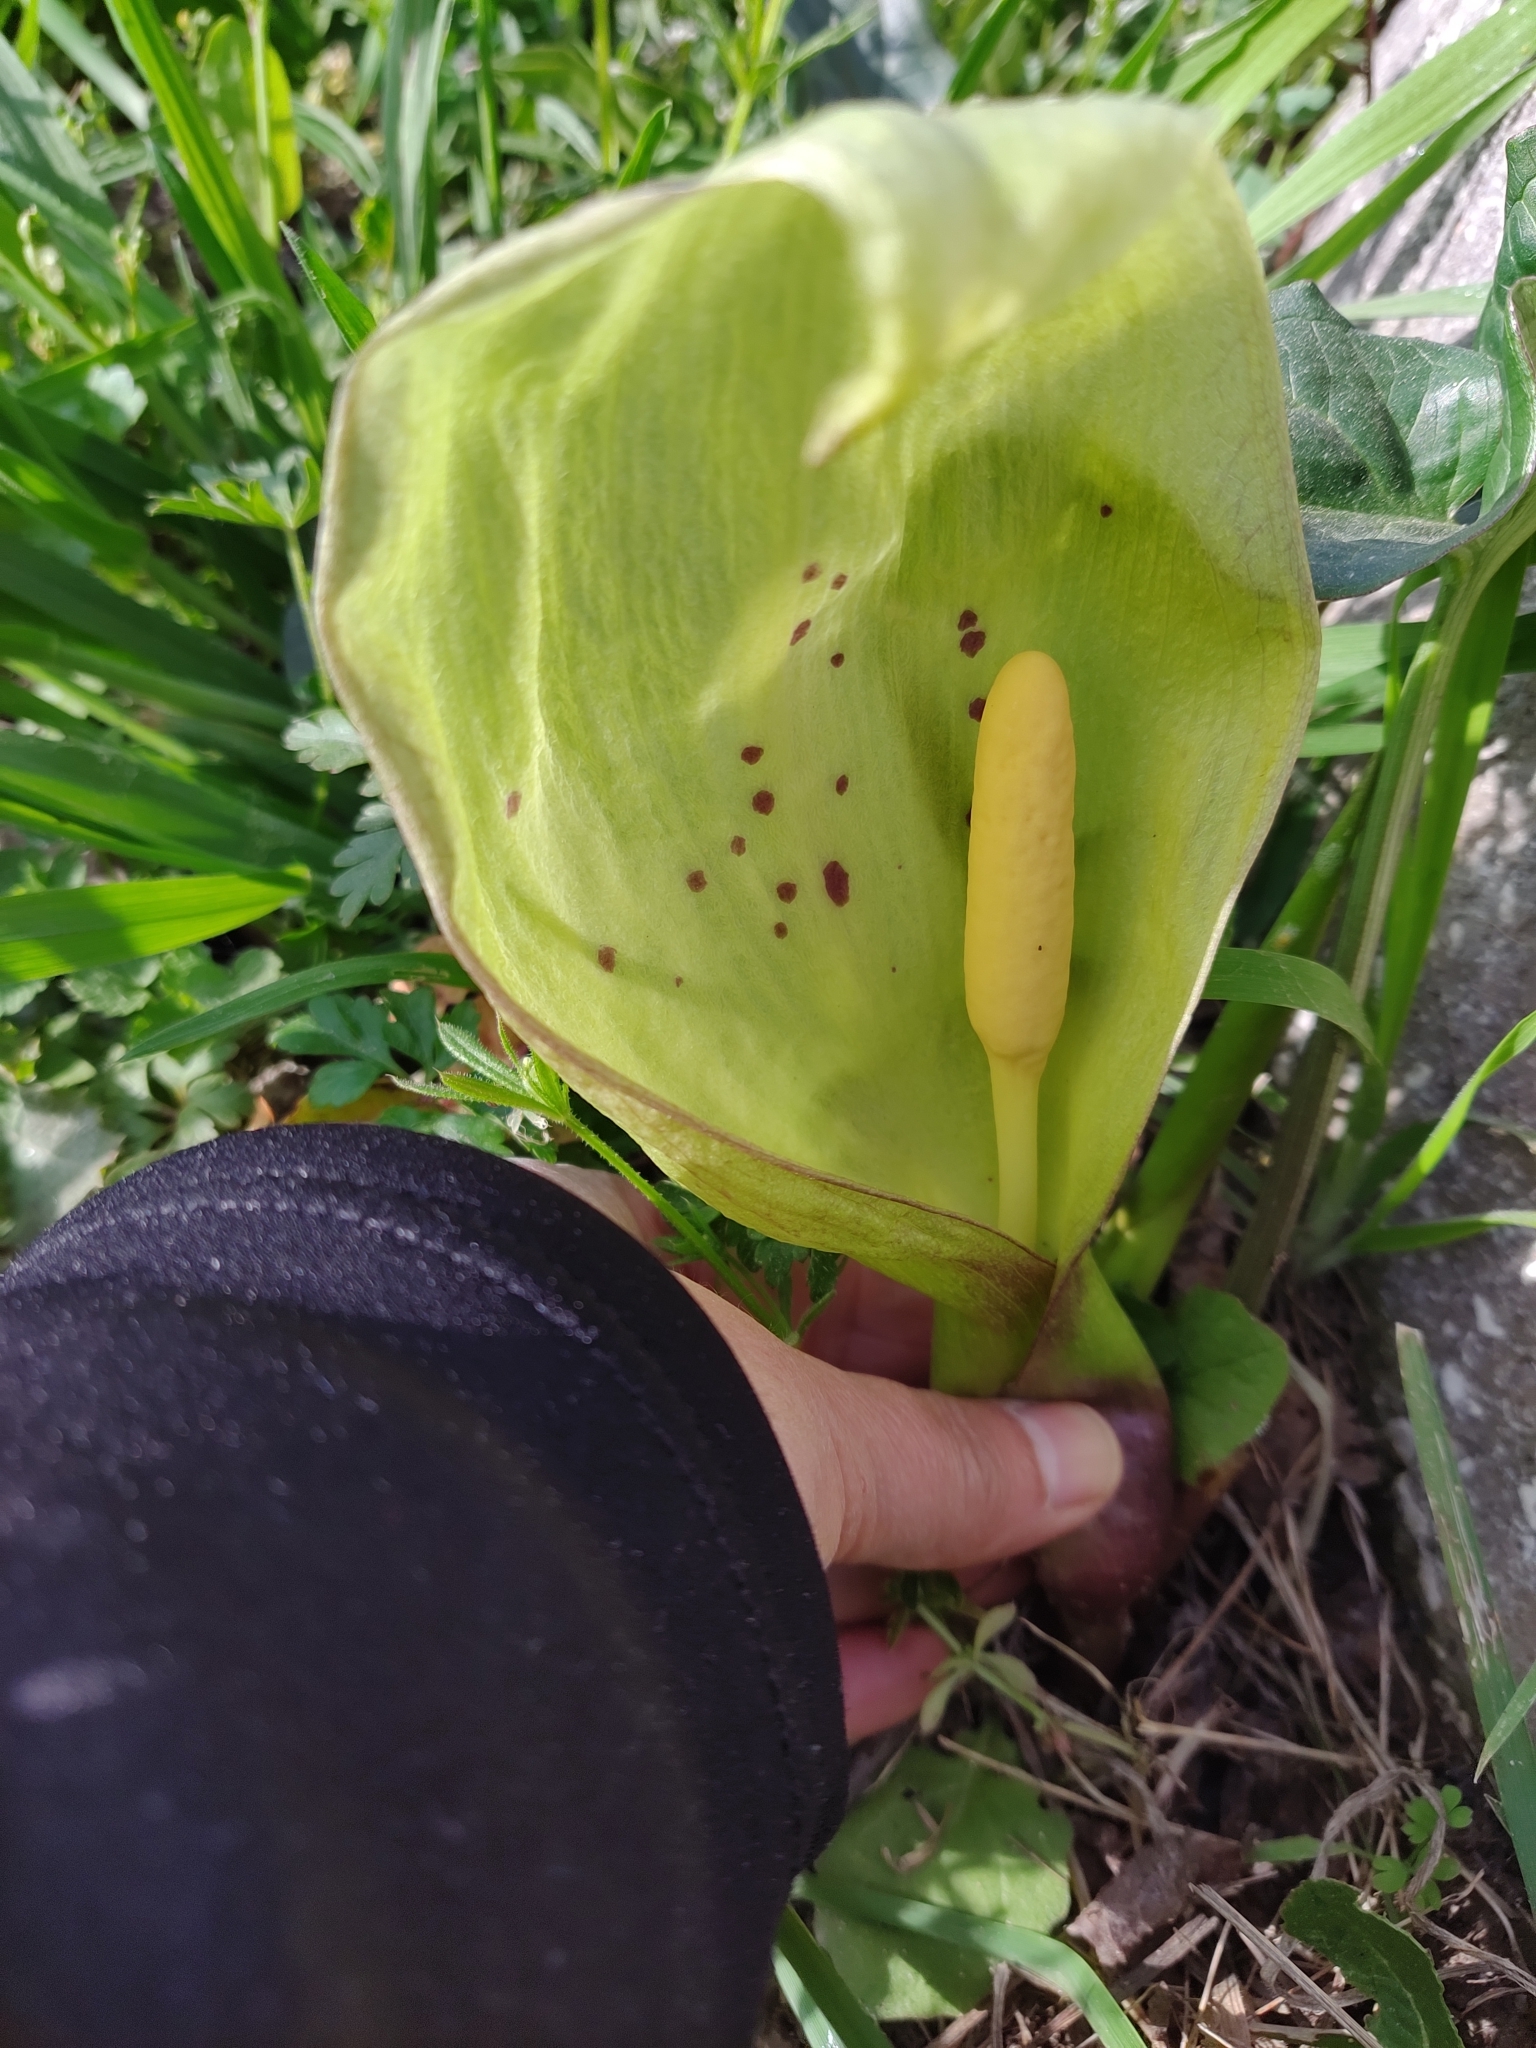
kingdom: Plantae
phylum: Tracheophyta
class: Liliopsida
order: Alismatales
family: Araceae
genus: Arum
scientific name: Arum italicum
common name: Italian lords-and-ladies
